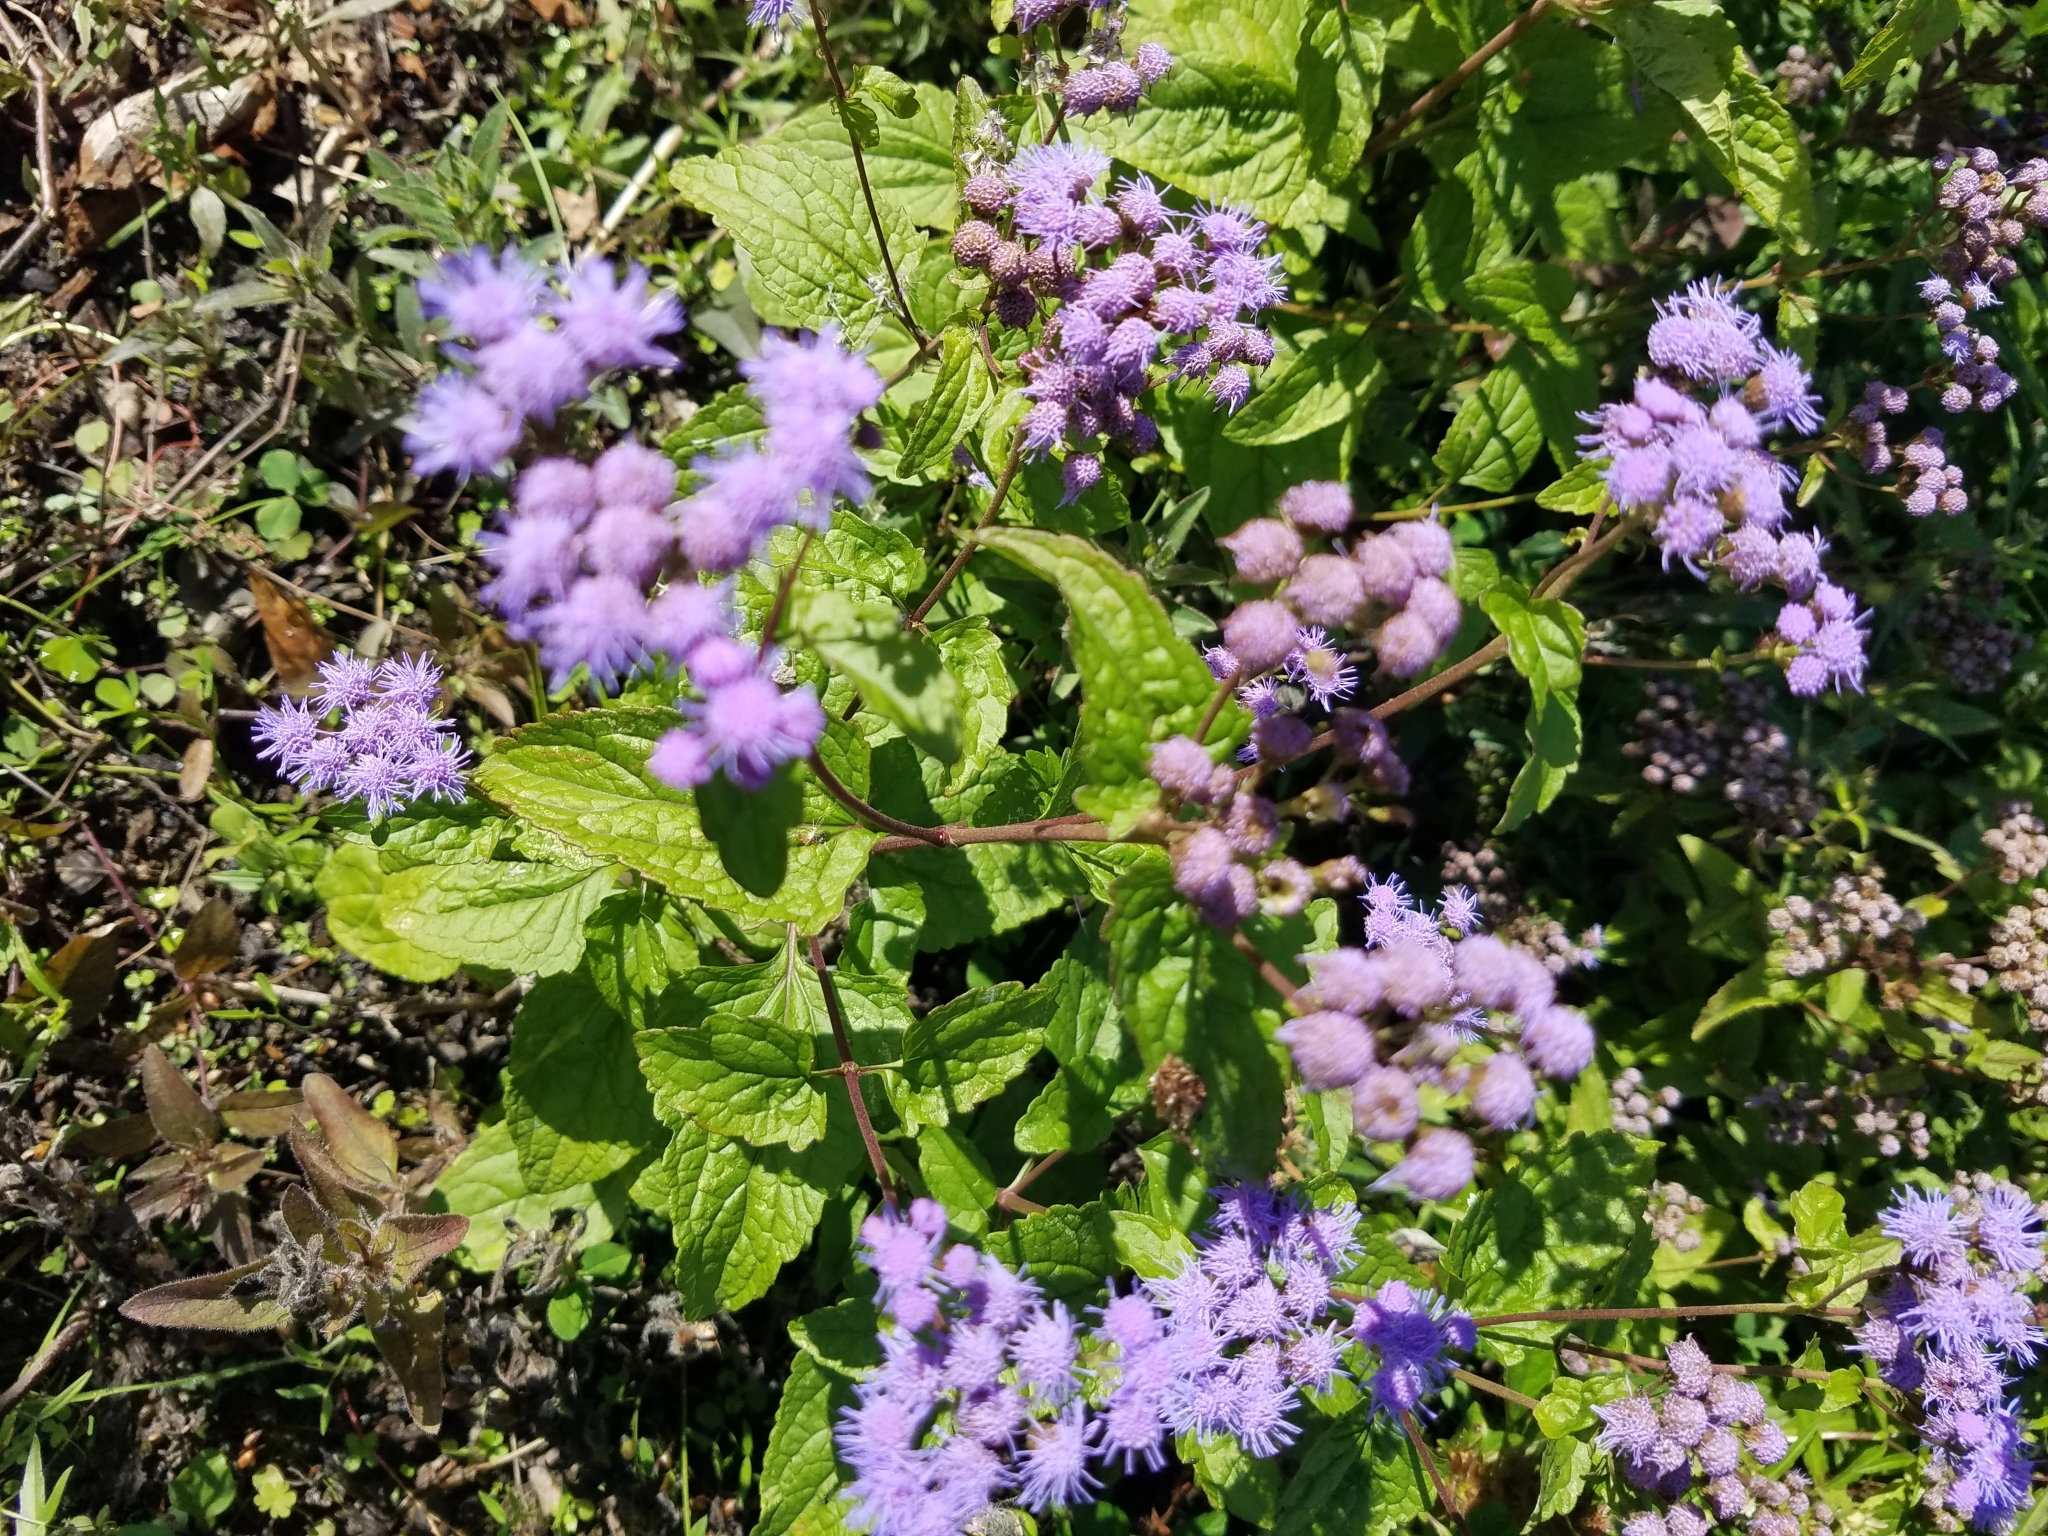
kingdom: Plantae
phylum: Tracheophyta
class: Magnoliopsida
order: Asterales
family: Asteraceae
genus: Conoclinium
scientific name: Conoclinium coelestinum
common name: Blue mistflower
